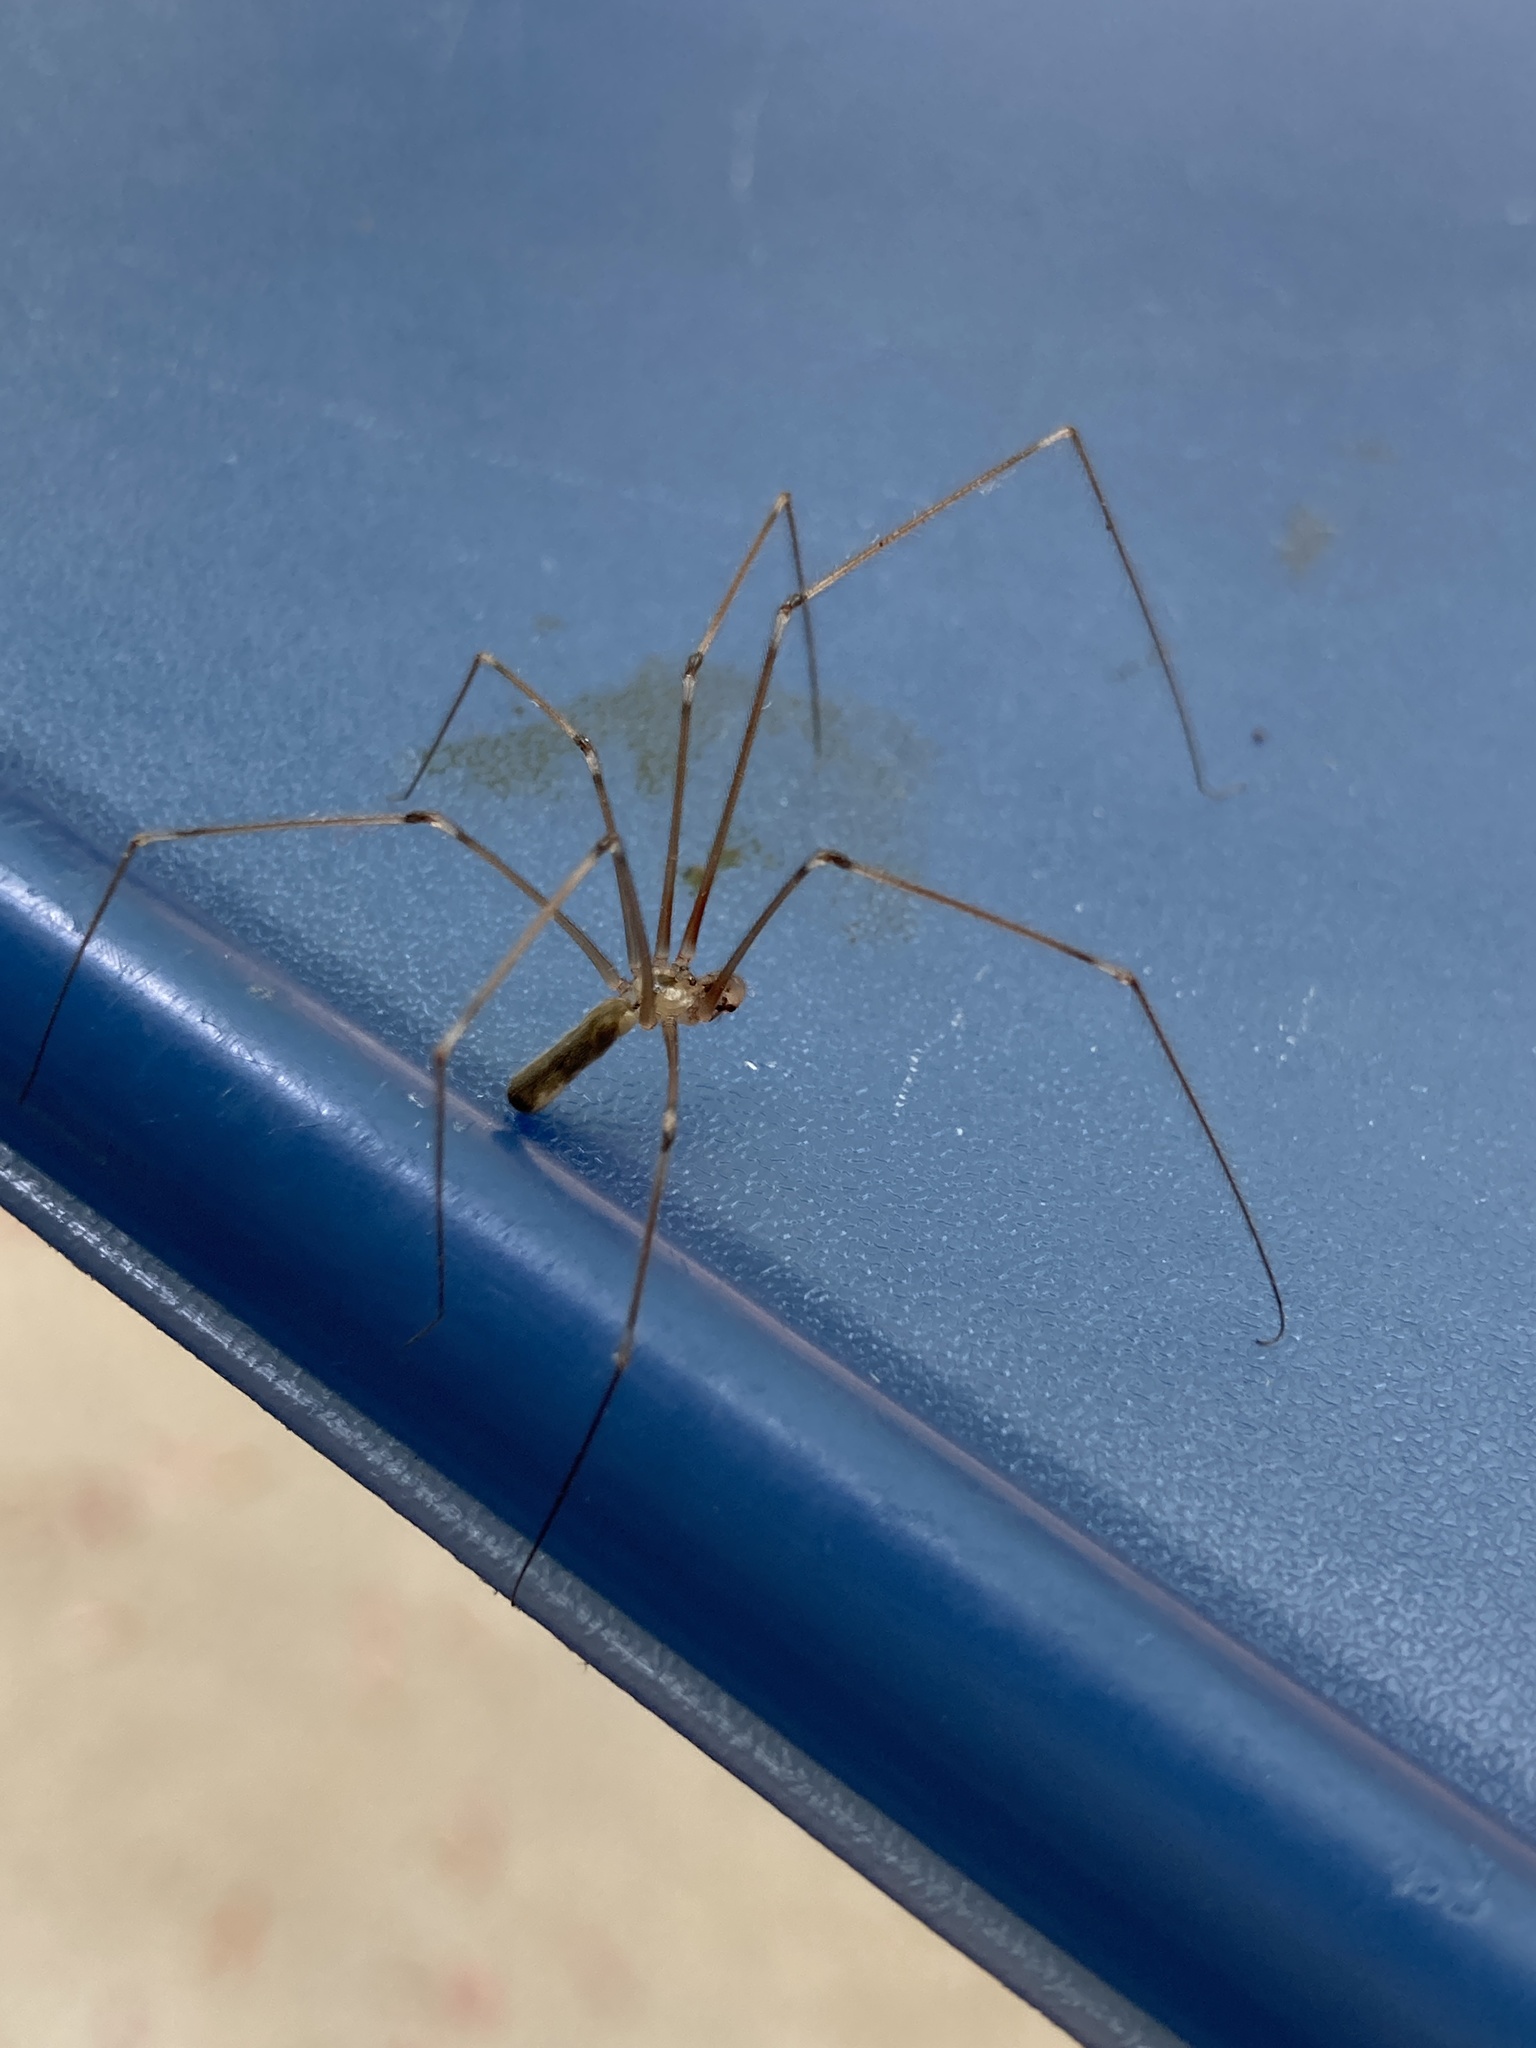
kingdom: Animalia
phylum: Arthropoda
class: Arachnida
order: Araneae
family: Pholcidae
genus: Pholcus
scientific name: Pholcus phalangioides
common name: Longbodied cellar spider
